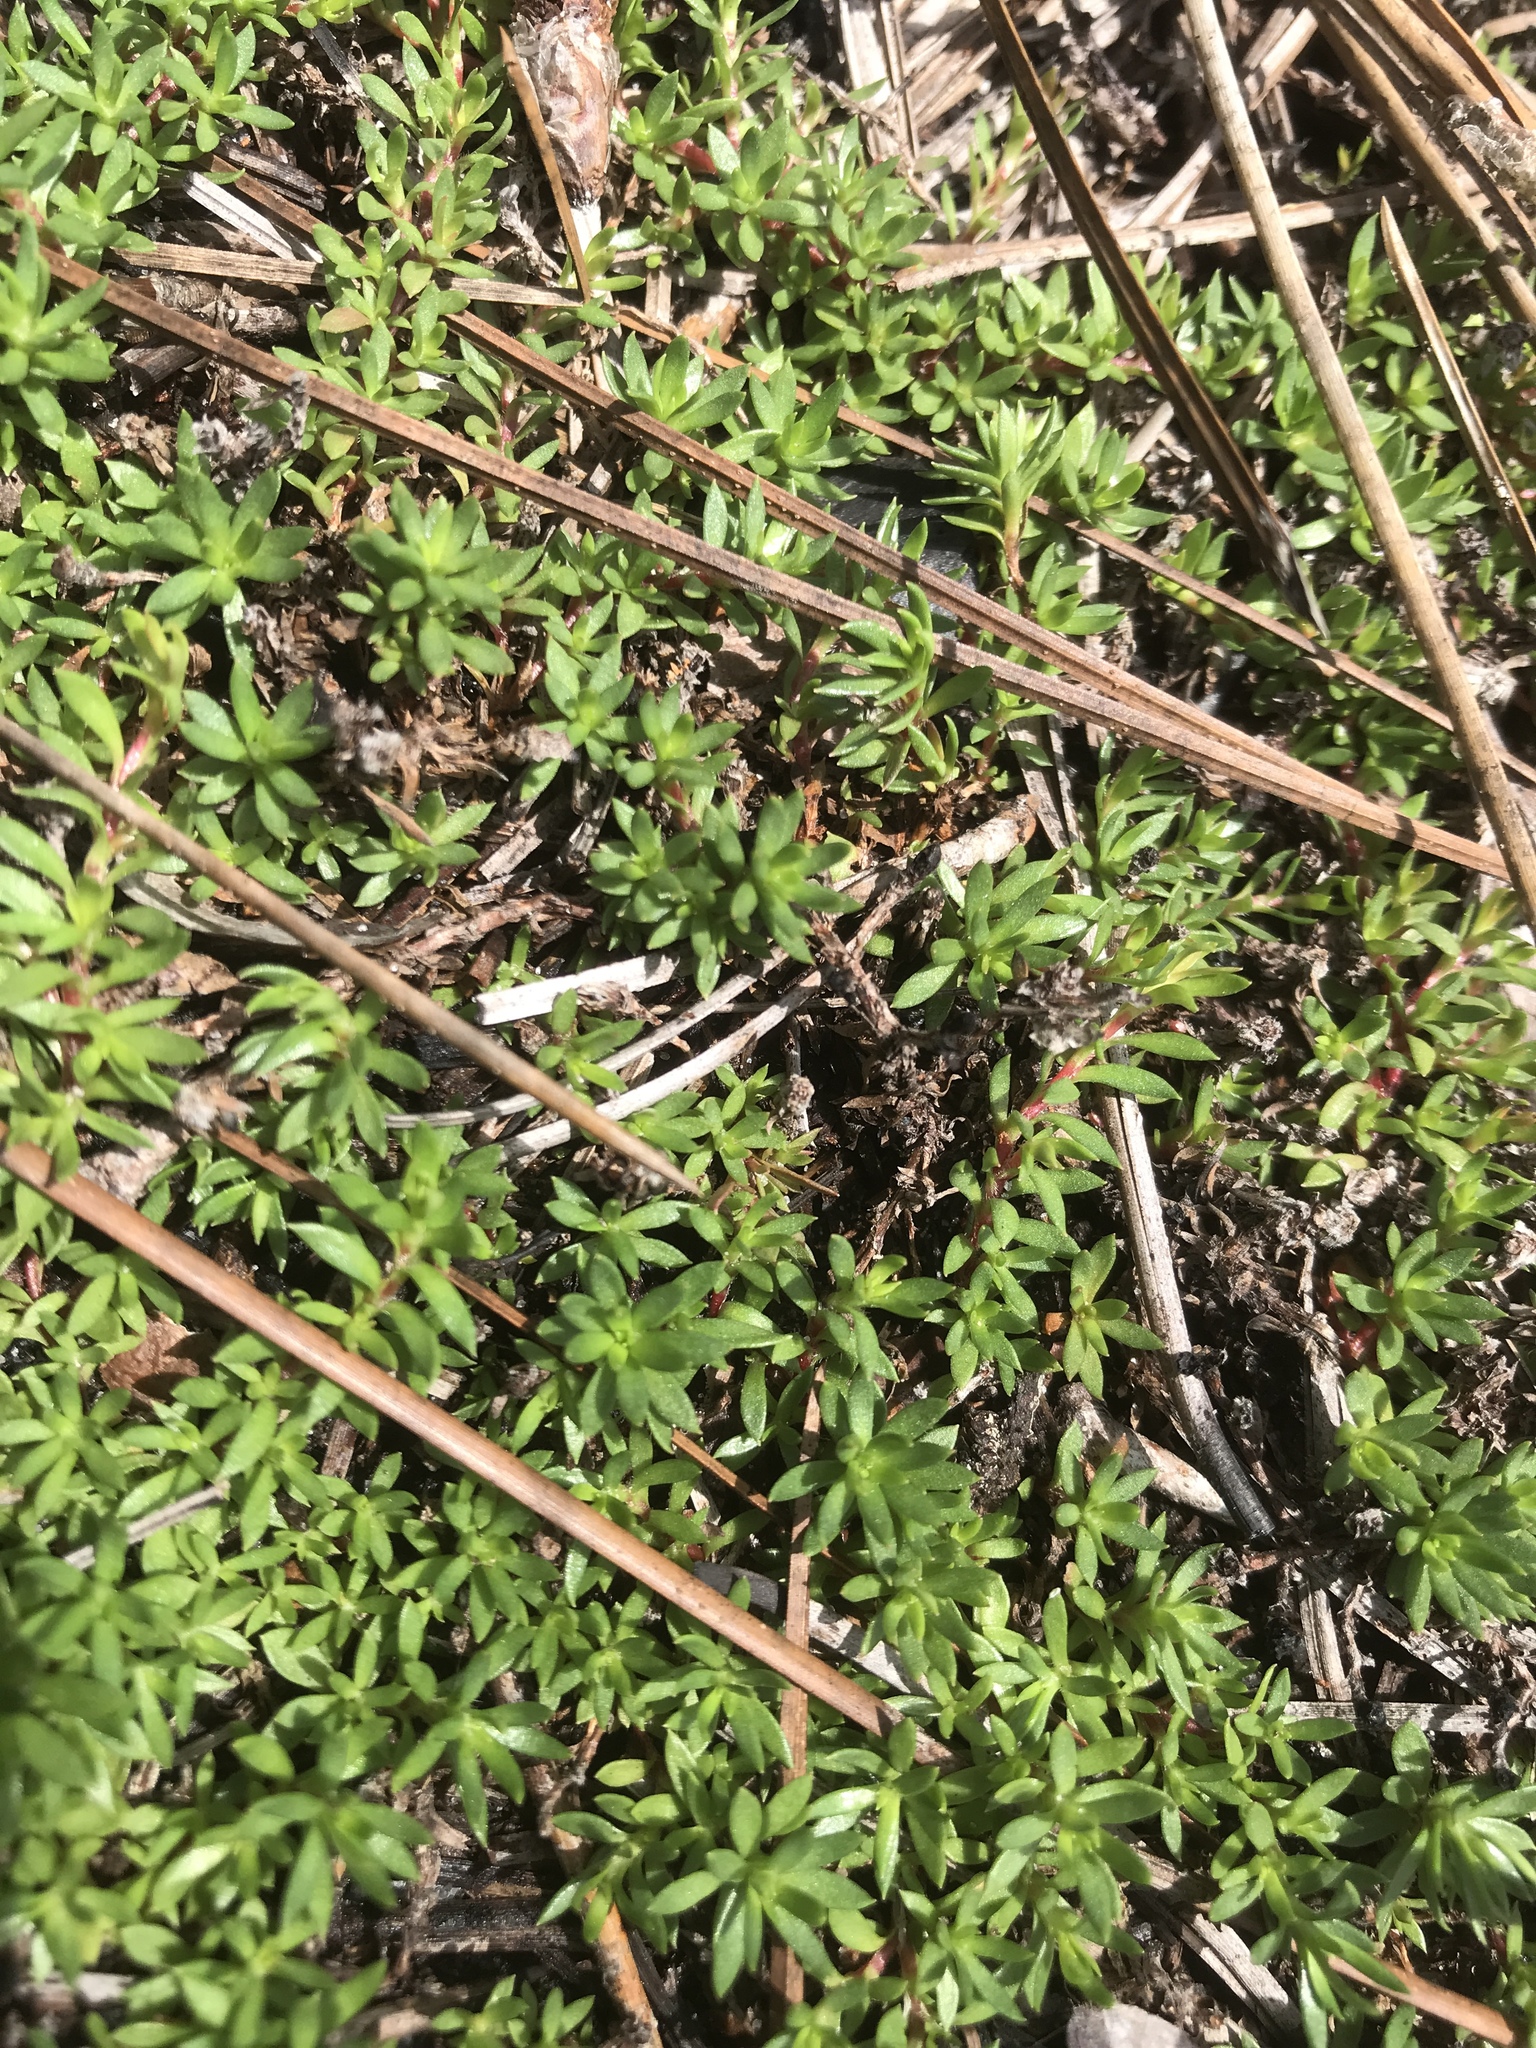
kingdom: Plantae
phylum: Tracheophyta
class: Magnoliopsida
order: Ericales
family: Diapensiaceae
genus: Pyxidanthera
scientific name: Pyxidanthera barbulata
